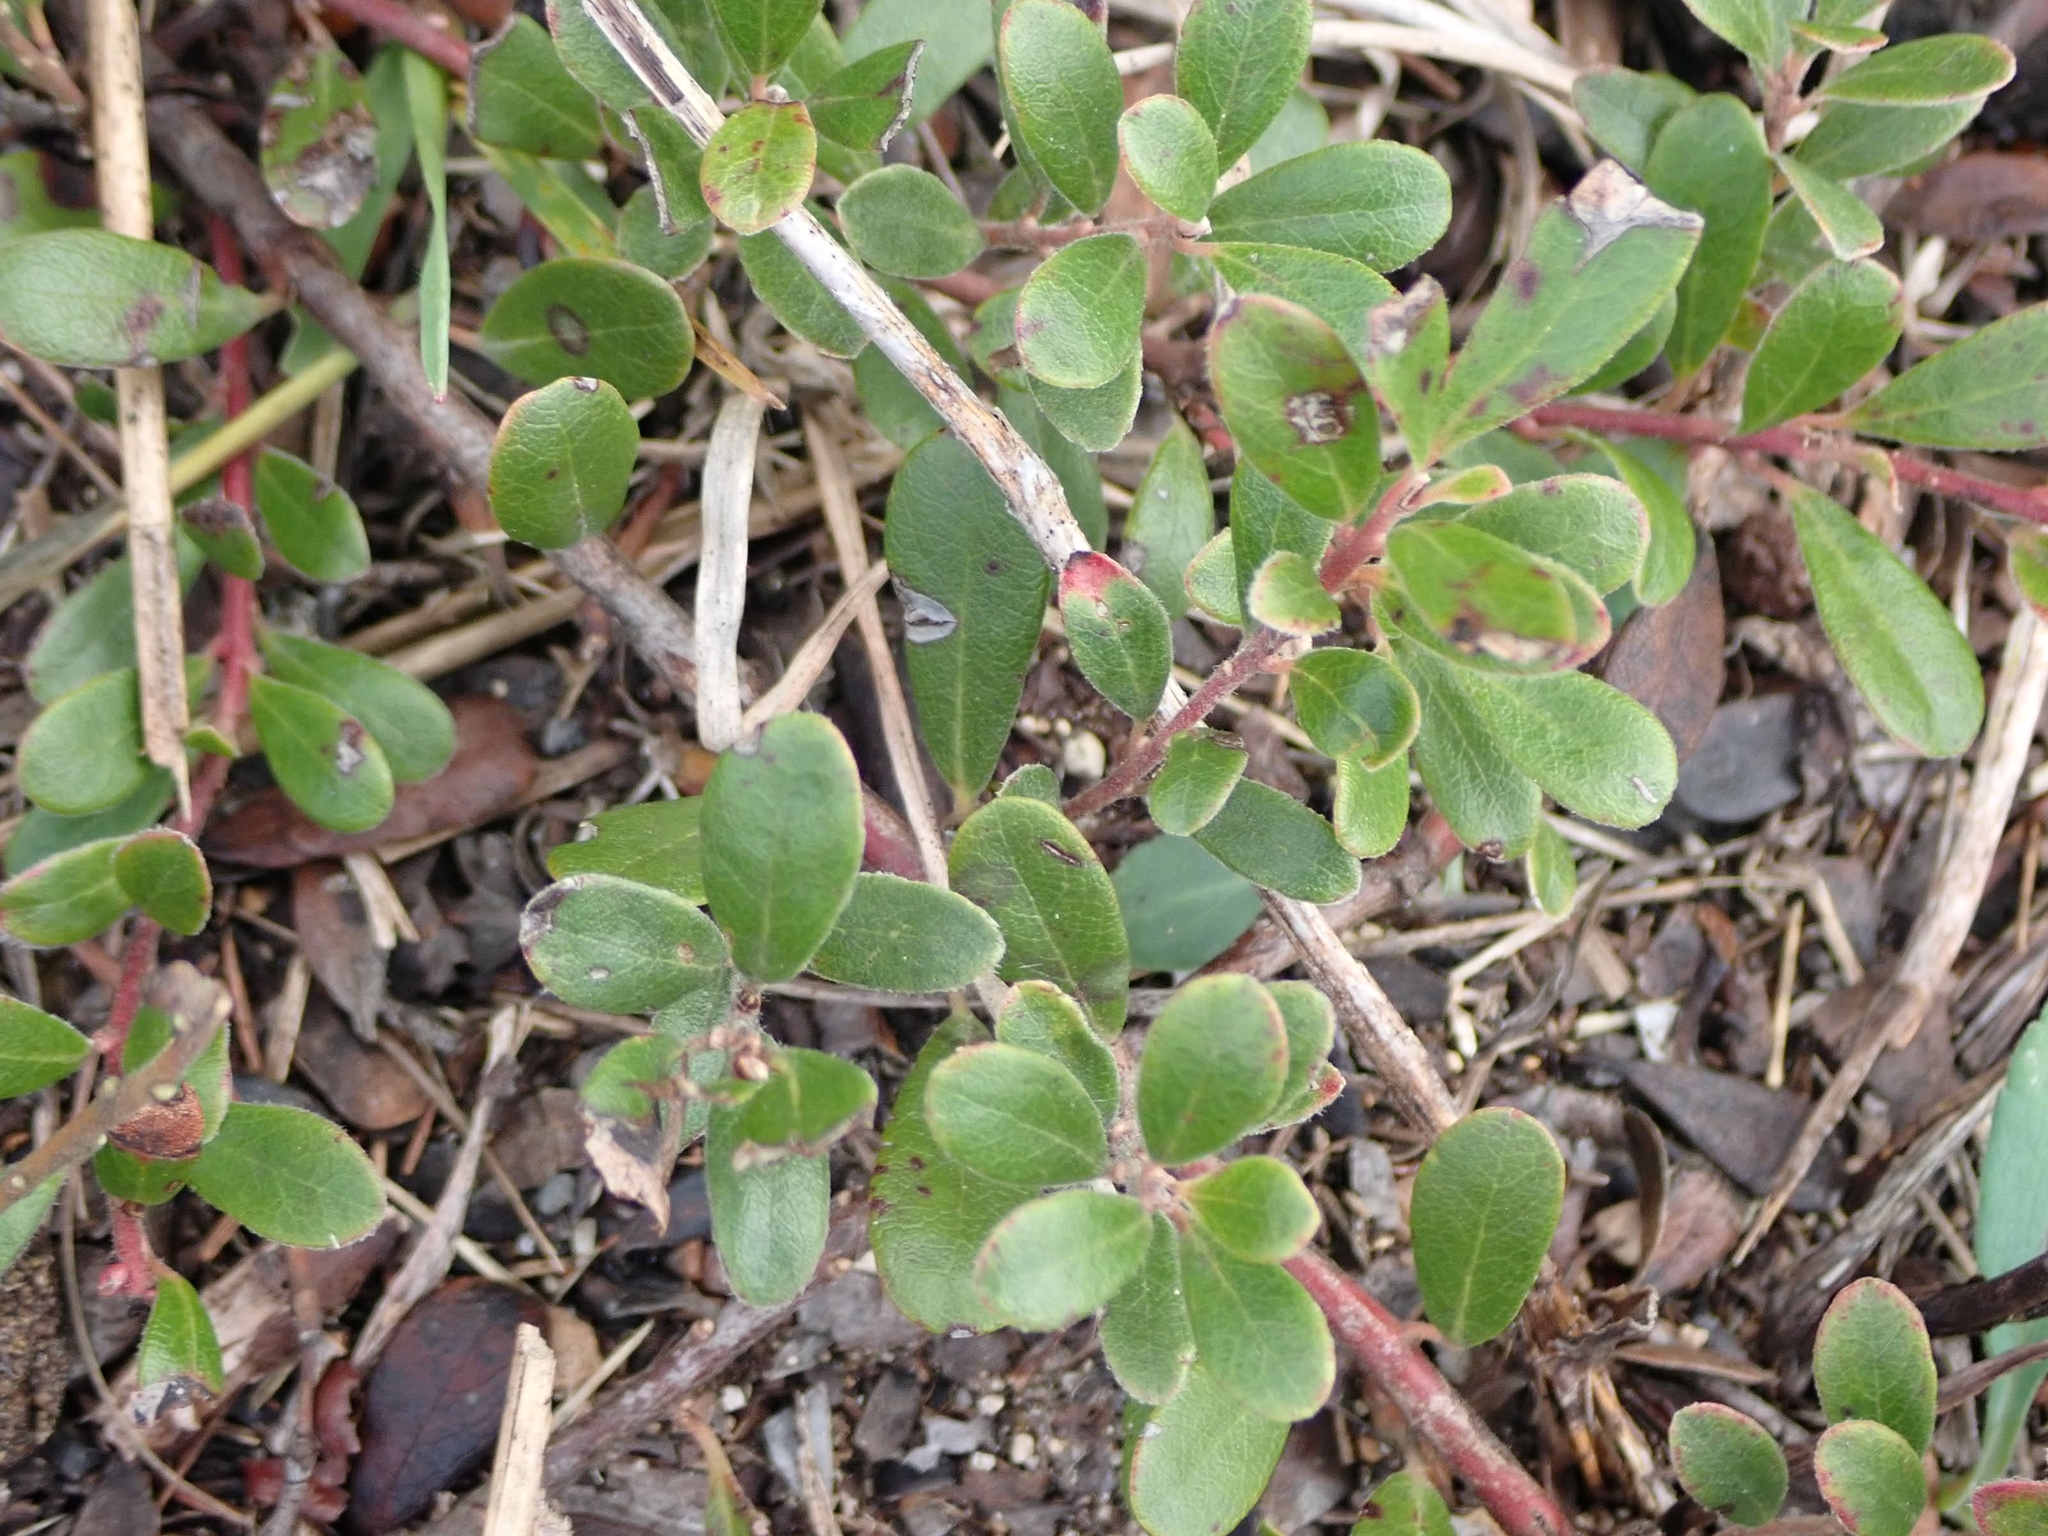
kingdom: Plantae
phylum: Tracheophyta
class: Magnoliopsida
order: Ericales
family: Ericaceae
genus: Arctostaphylos
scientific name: Arctostaphylos uva-ursi
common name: Bearberry
